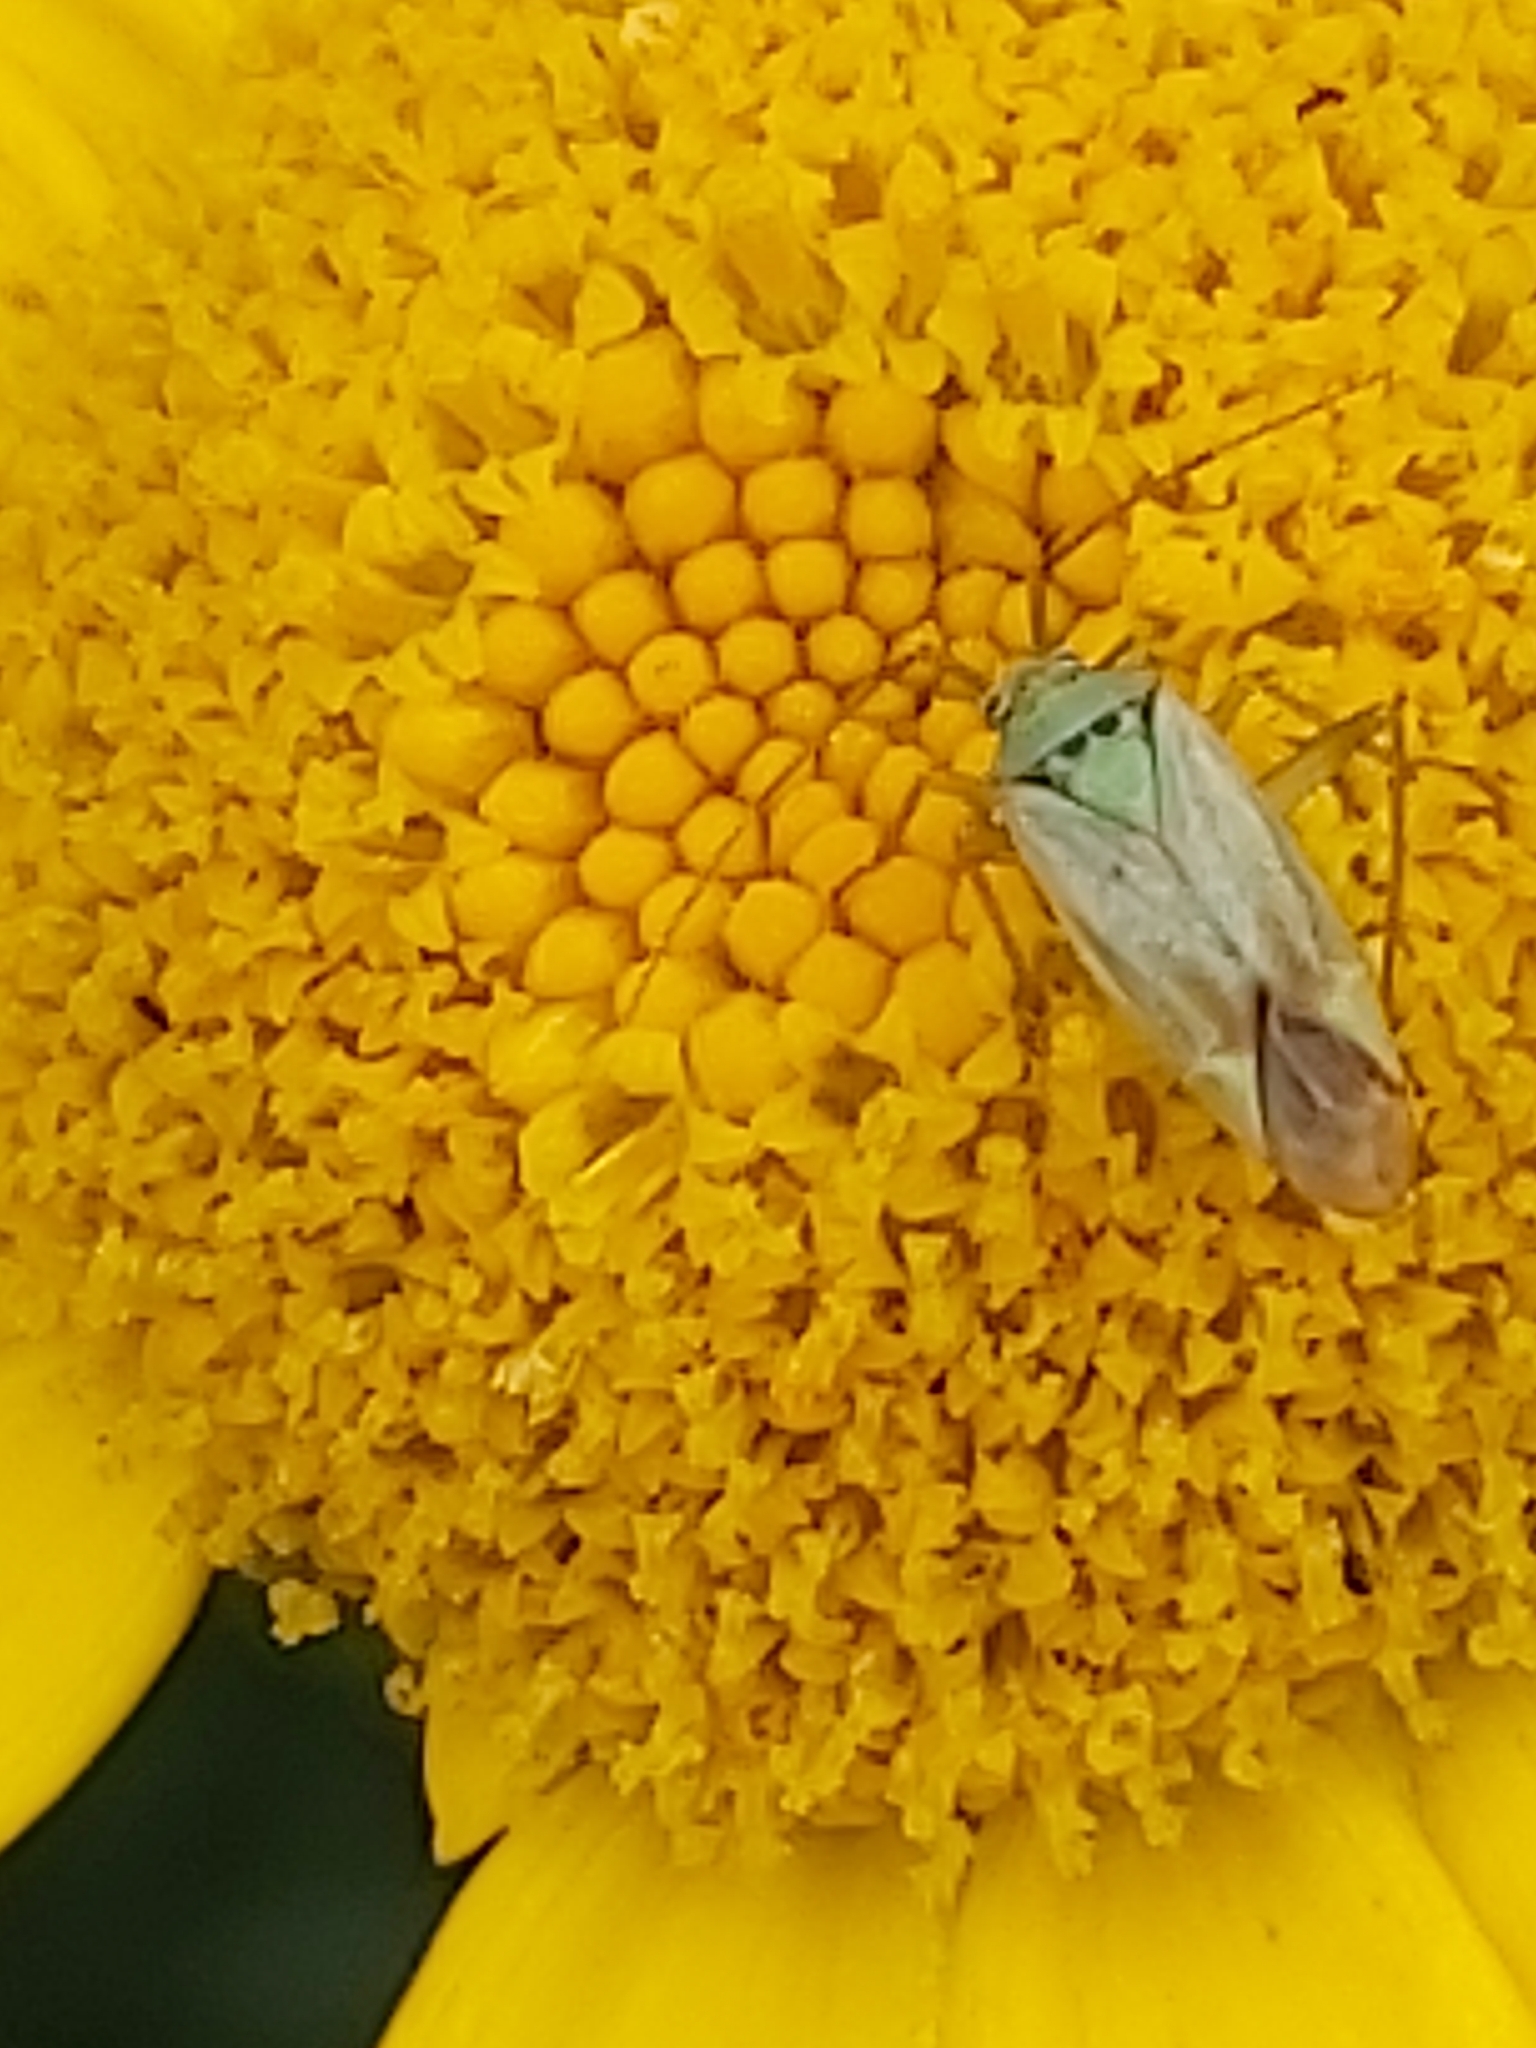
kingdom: Animalia
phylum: Arthropoda
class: Insecta
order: Hemiptera
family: Miridae
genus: Closterotomus
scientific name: Closterotomus norvegicus
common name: Plant bug
